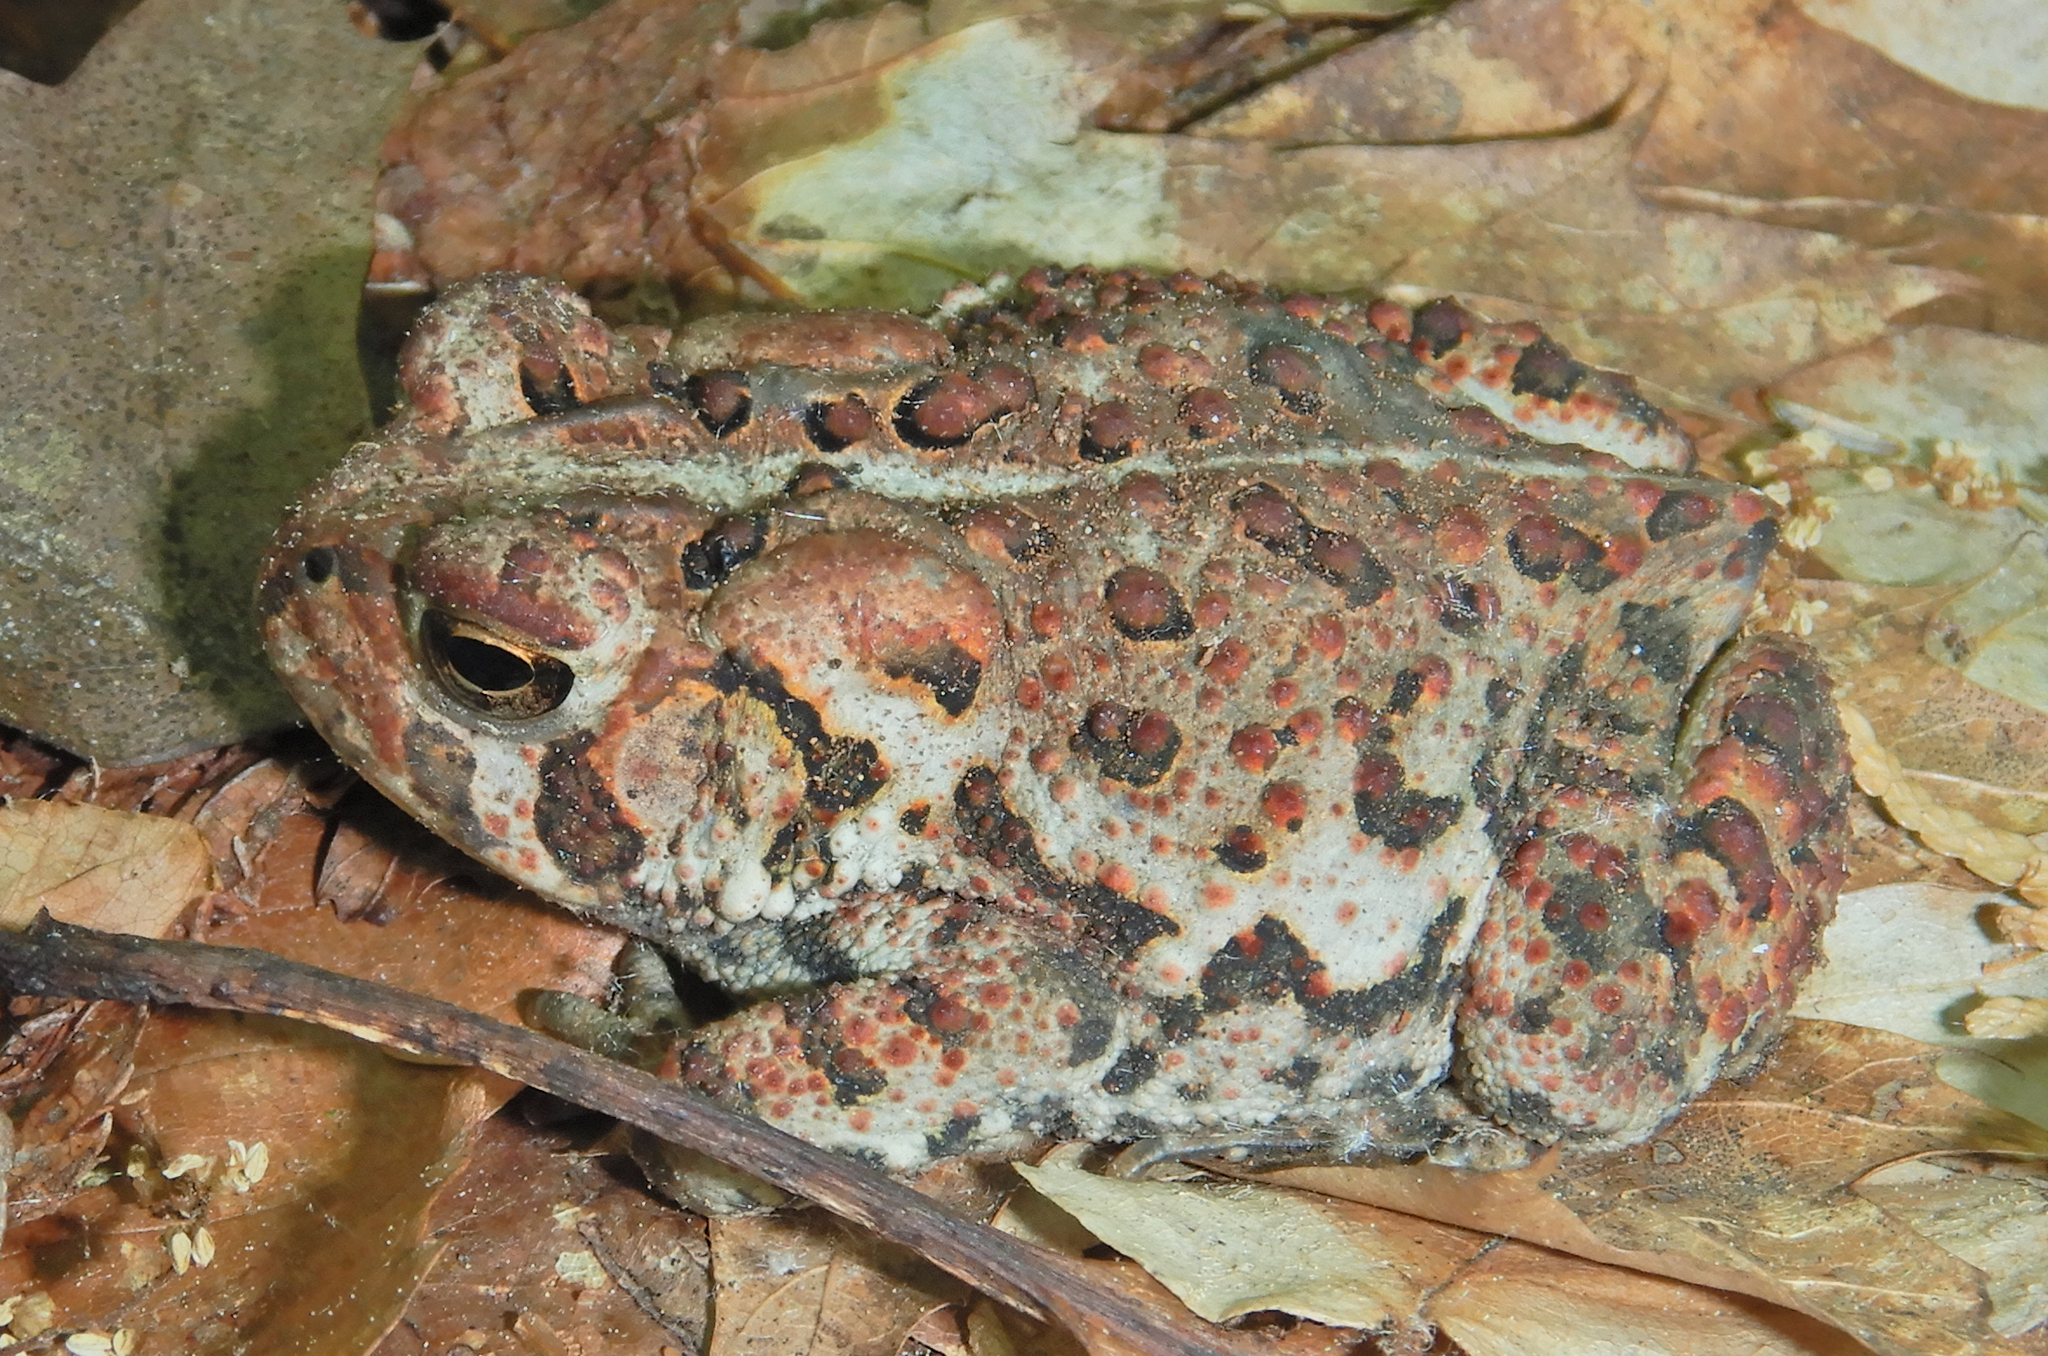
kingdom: Animalia
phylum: Chordata
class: Amphibia
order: Anura
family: Bufonidae
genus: Anaxyrus
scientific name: Anaxyrus americanus
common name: American toad
